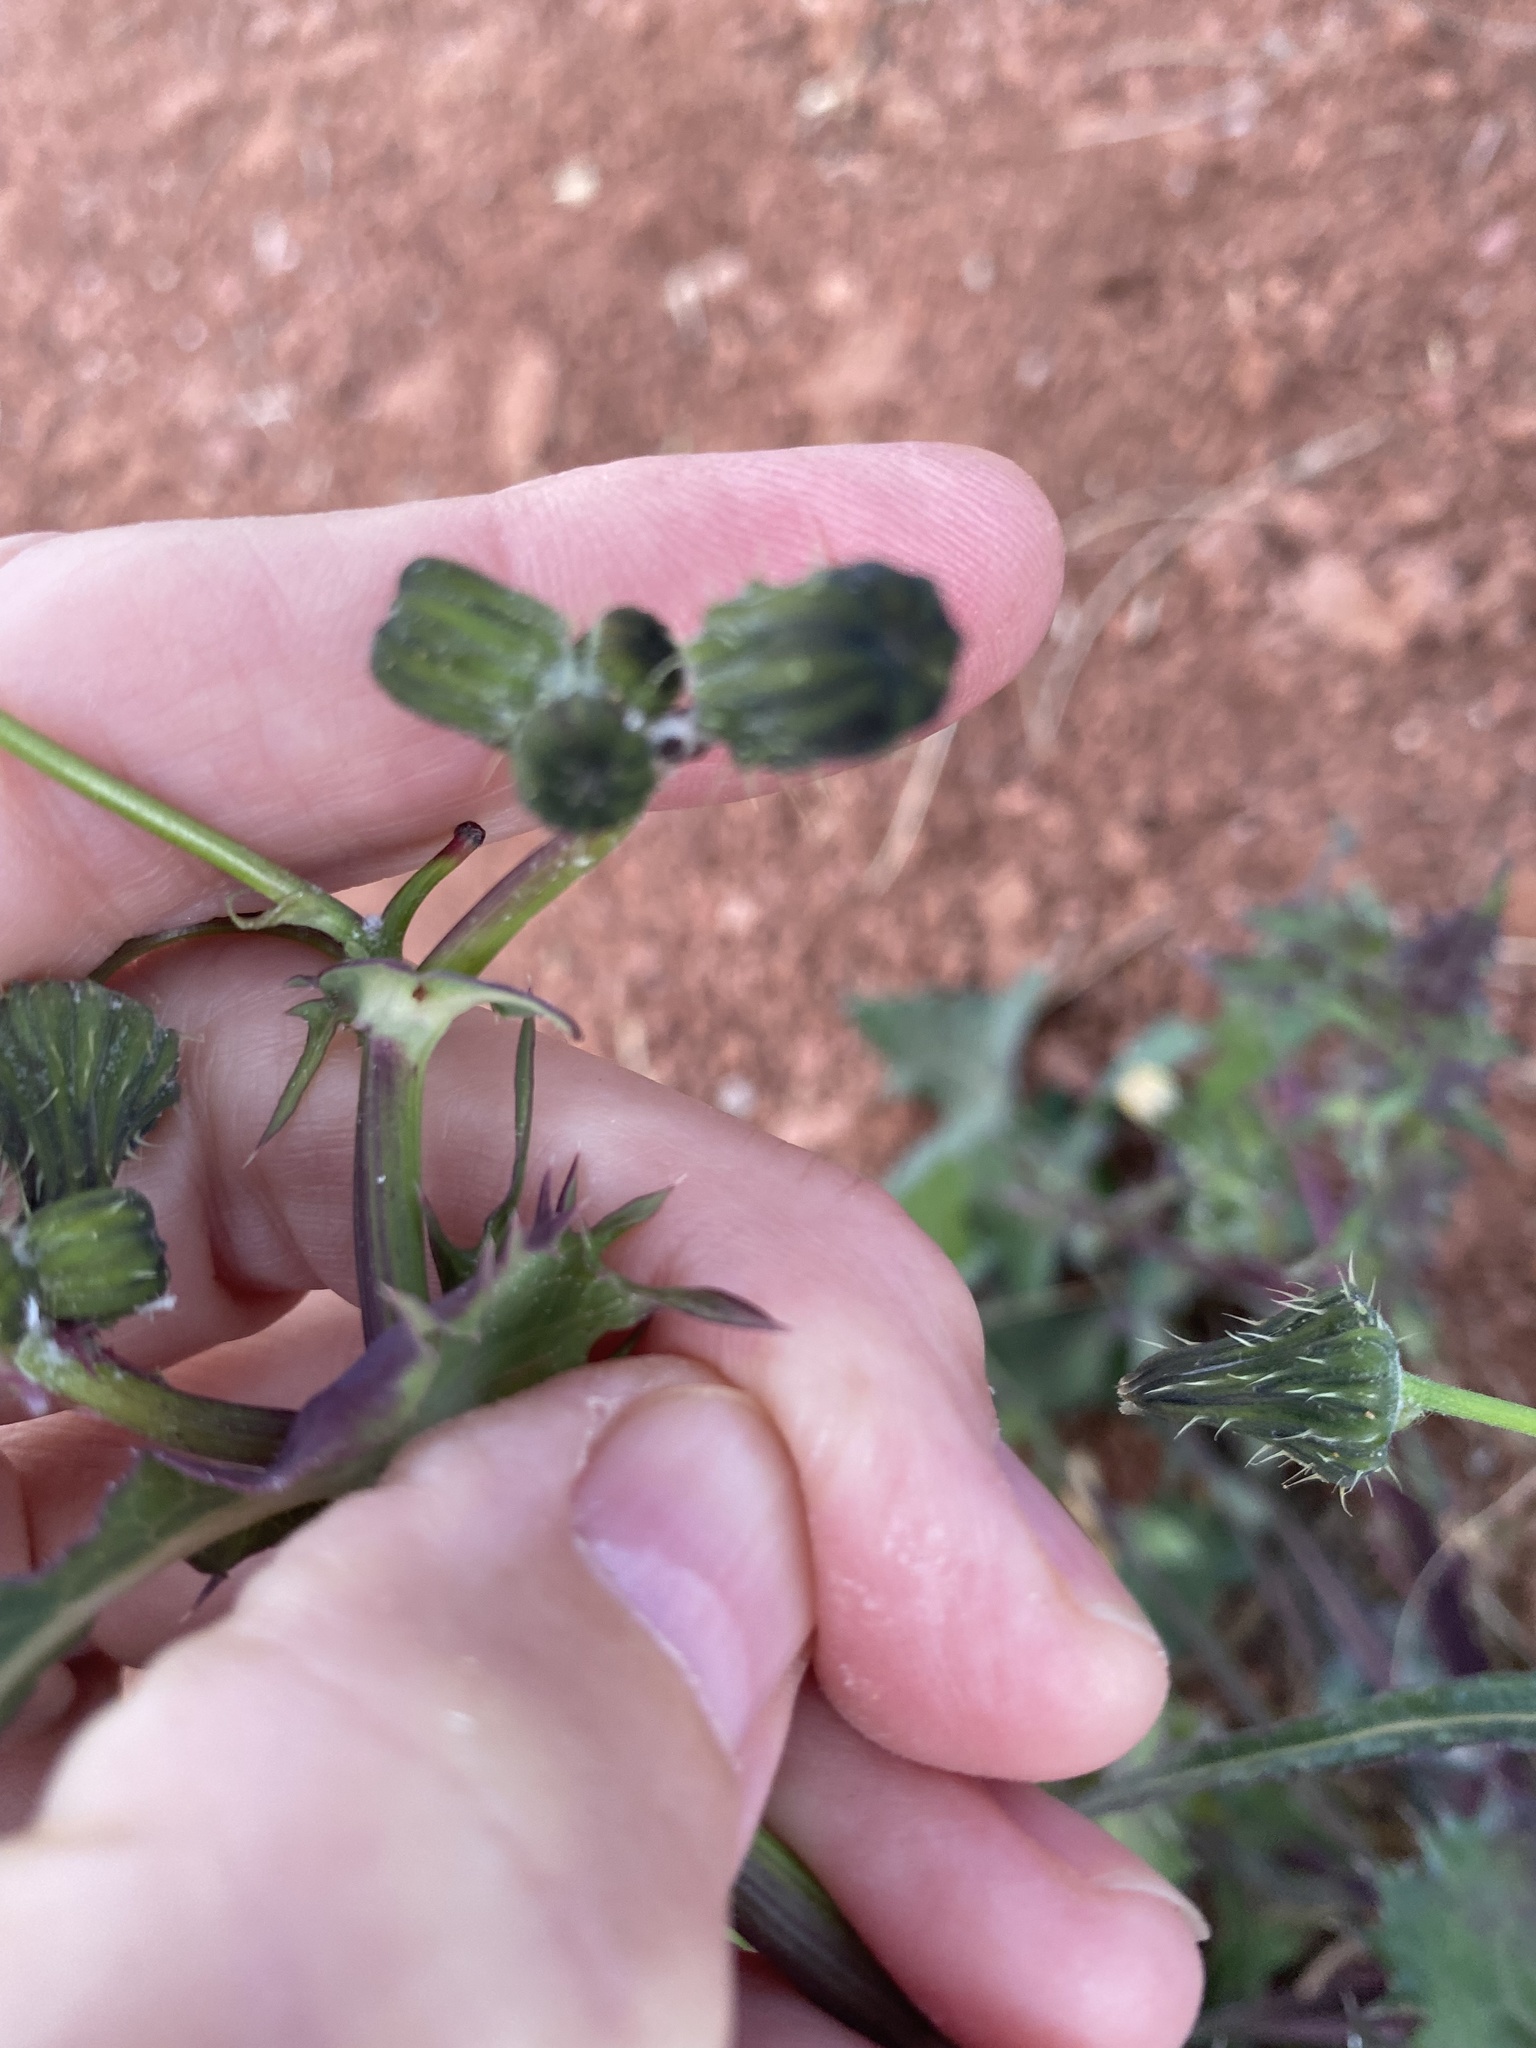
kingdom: Plantae
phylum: Tracheophyta
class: Magnoliopsida
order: Asterales
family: Asteraceae
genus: Sonchus
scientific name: Sonchus oleraceus
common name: Common sowthistle
